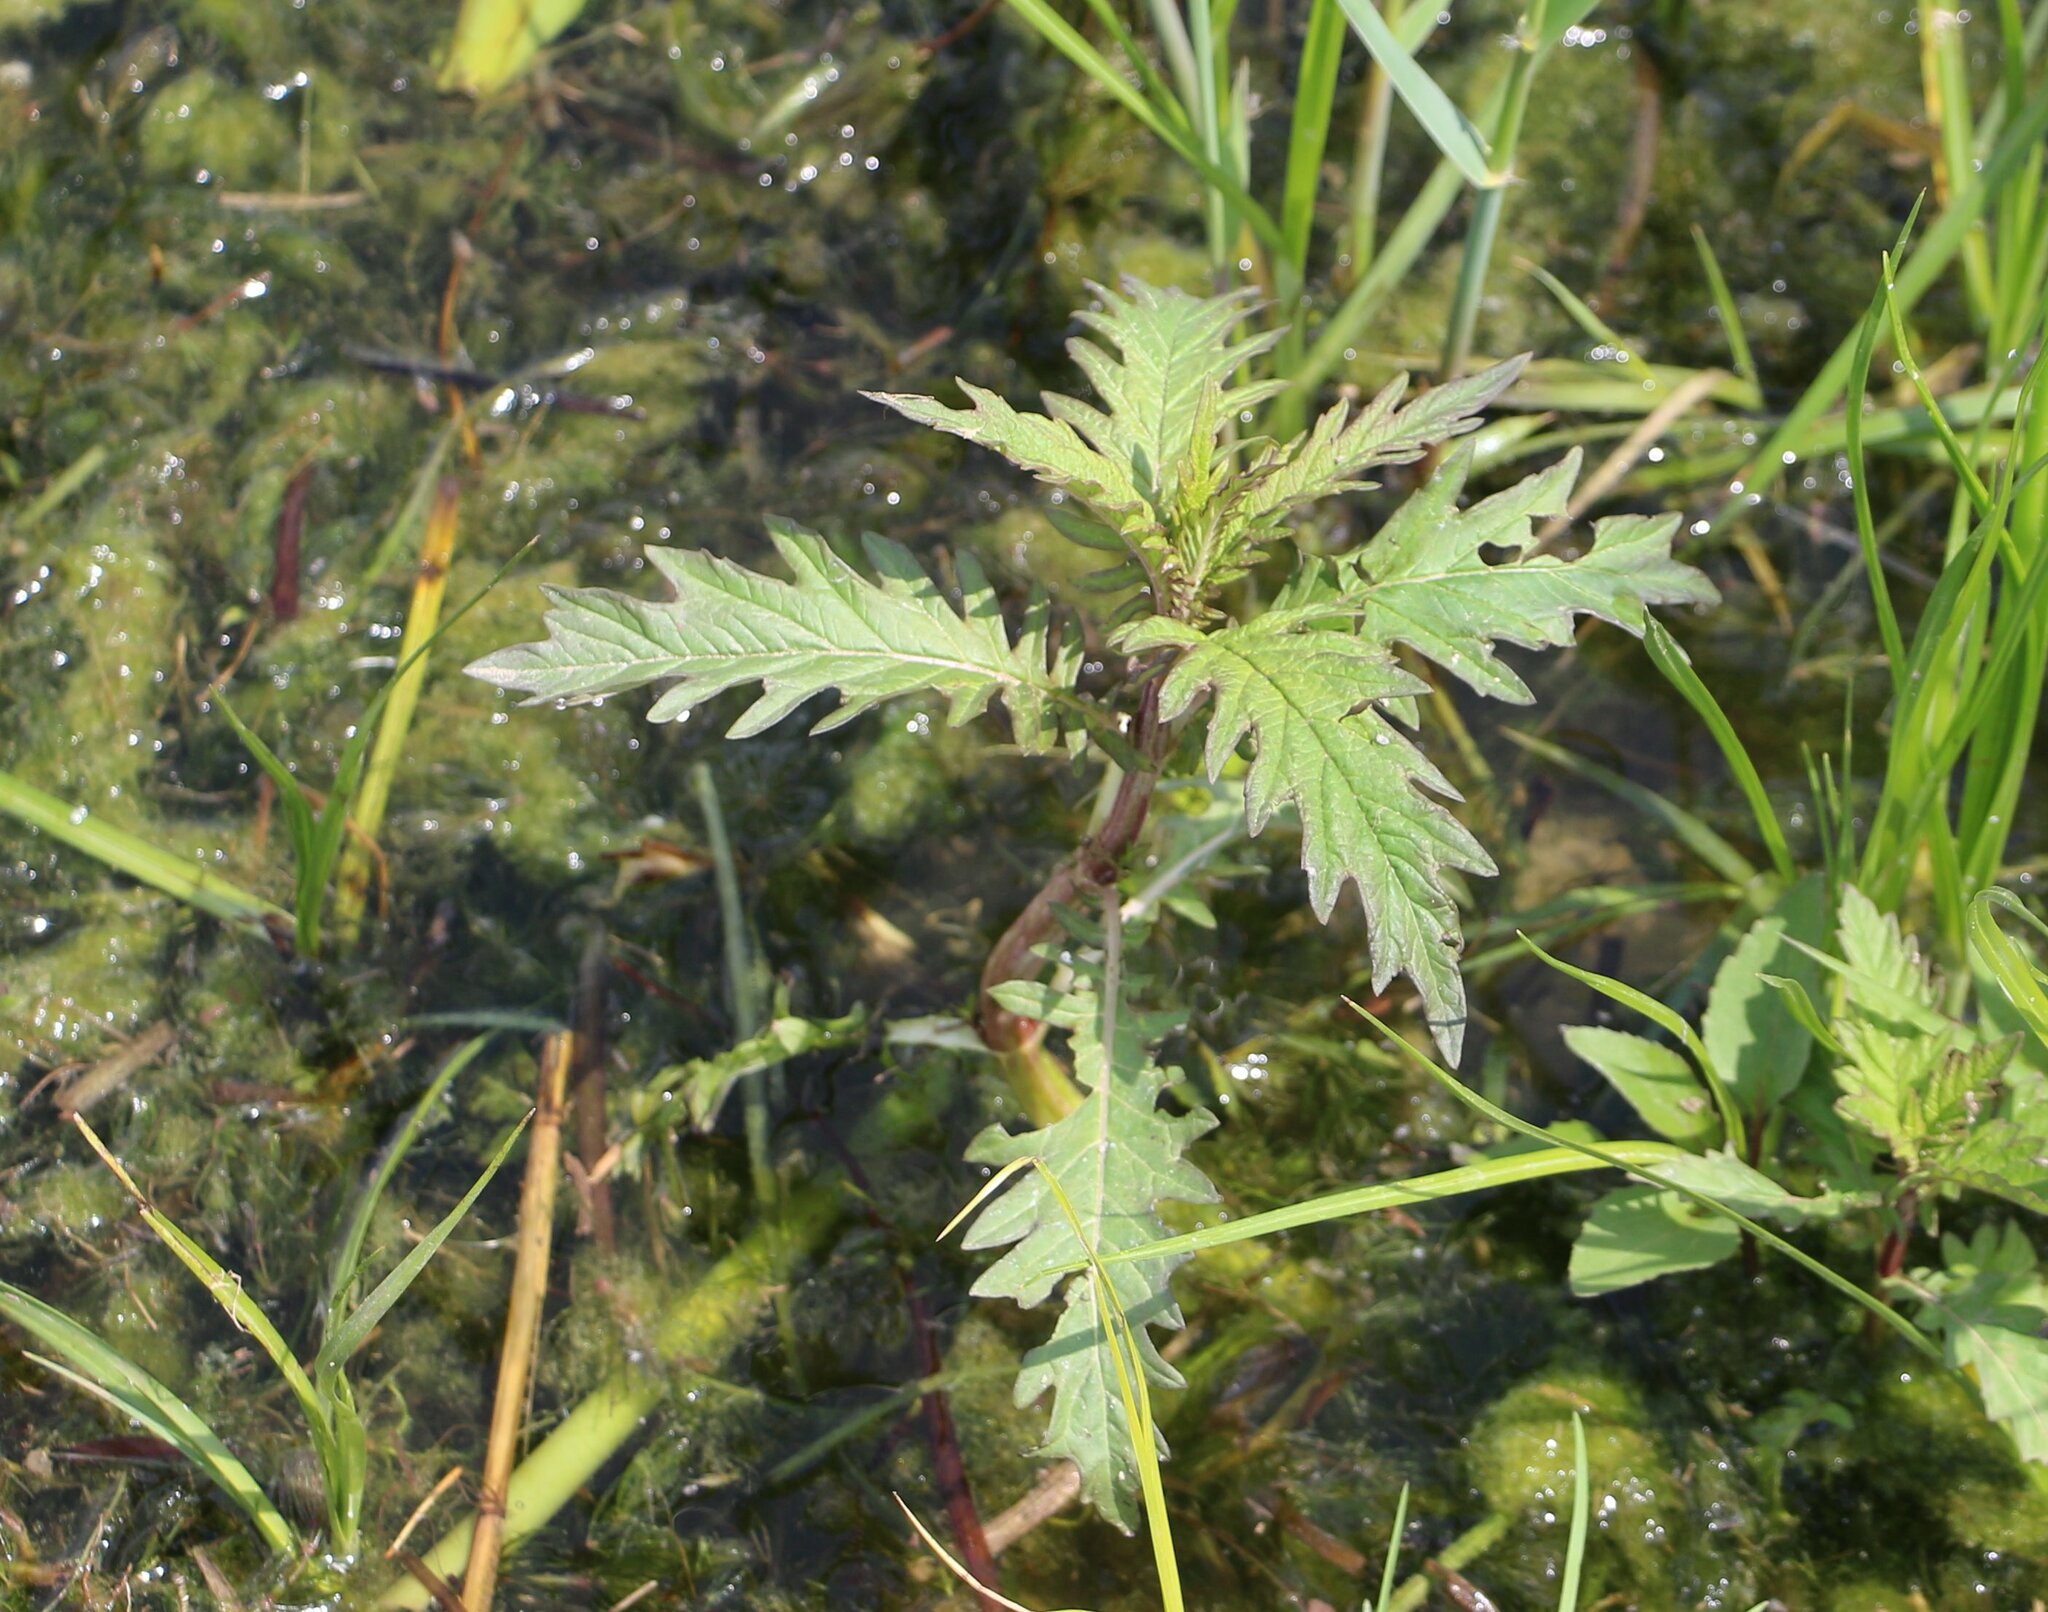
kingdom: Plantae
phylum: Tracheophyta
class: Magnoliopsida
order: Lamiales
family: Lamiaceae
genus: Lycopus
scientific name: Lycopus europaeus
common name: European bugleweed
